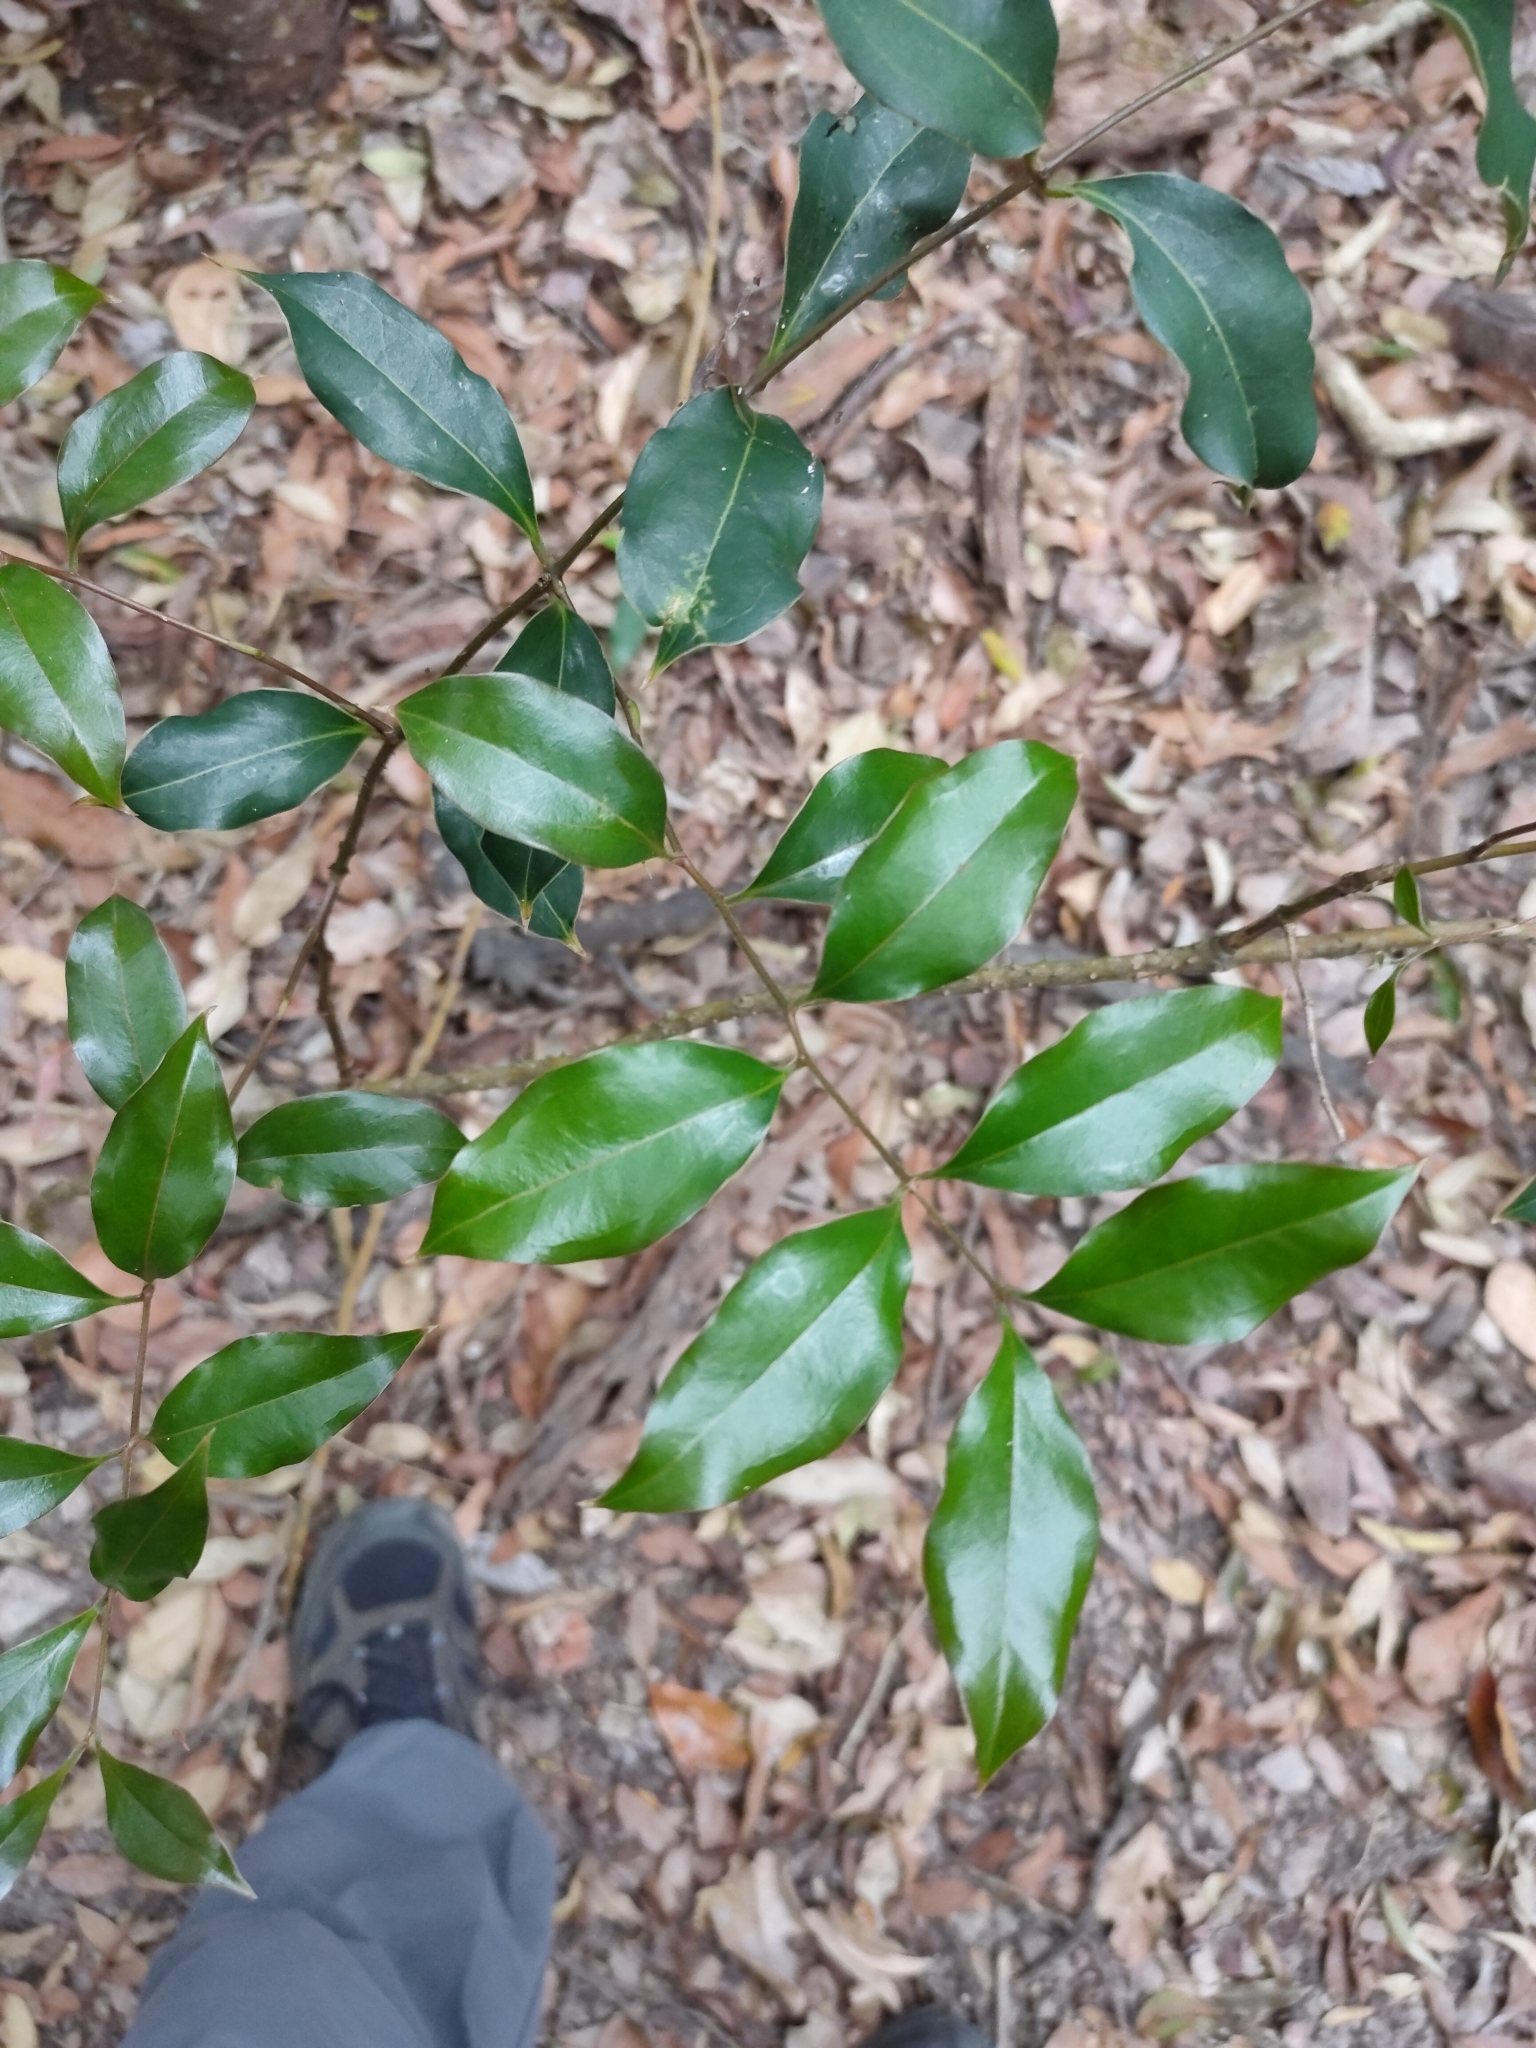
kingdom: Plantae
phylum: Tracheophyta
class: Liliopsida
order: Liliales
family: Ripogonaceae
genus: Ripogonum
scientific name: Ripogonum brevifolium
